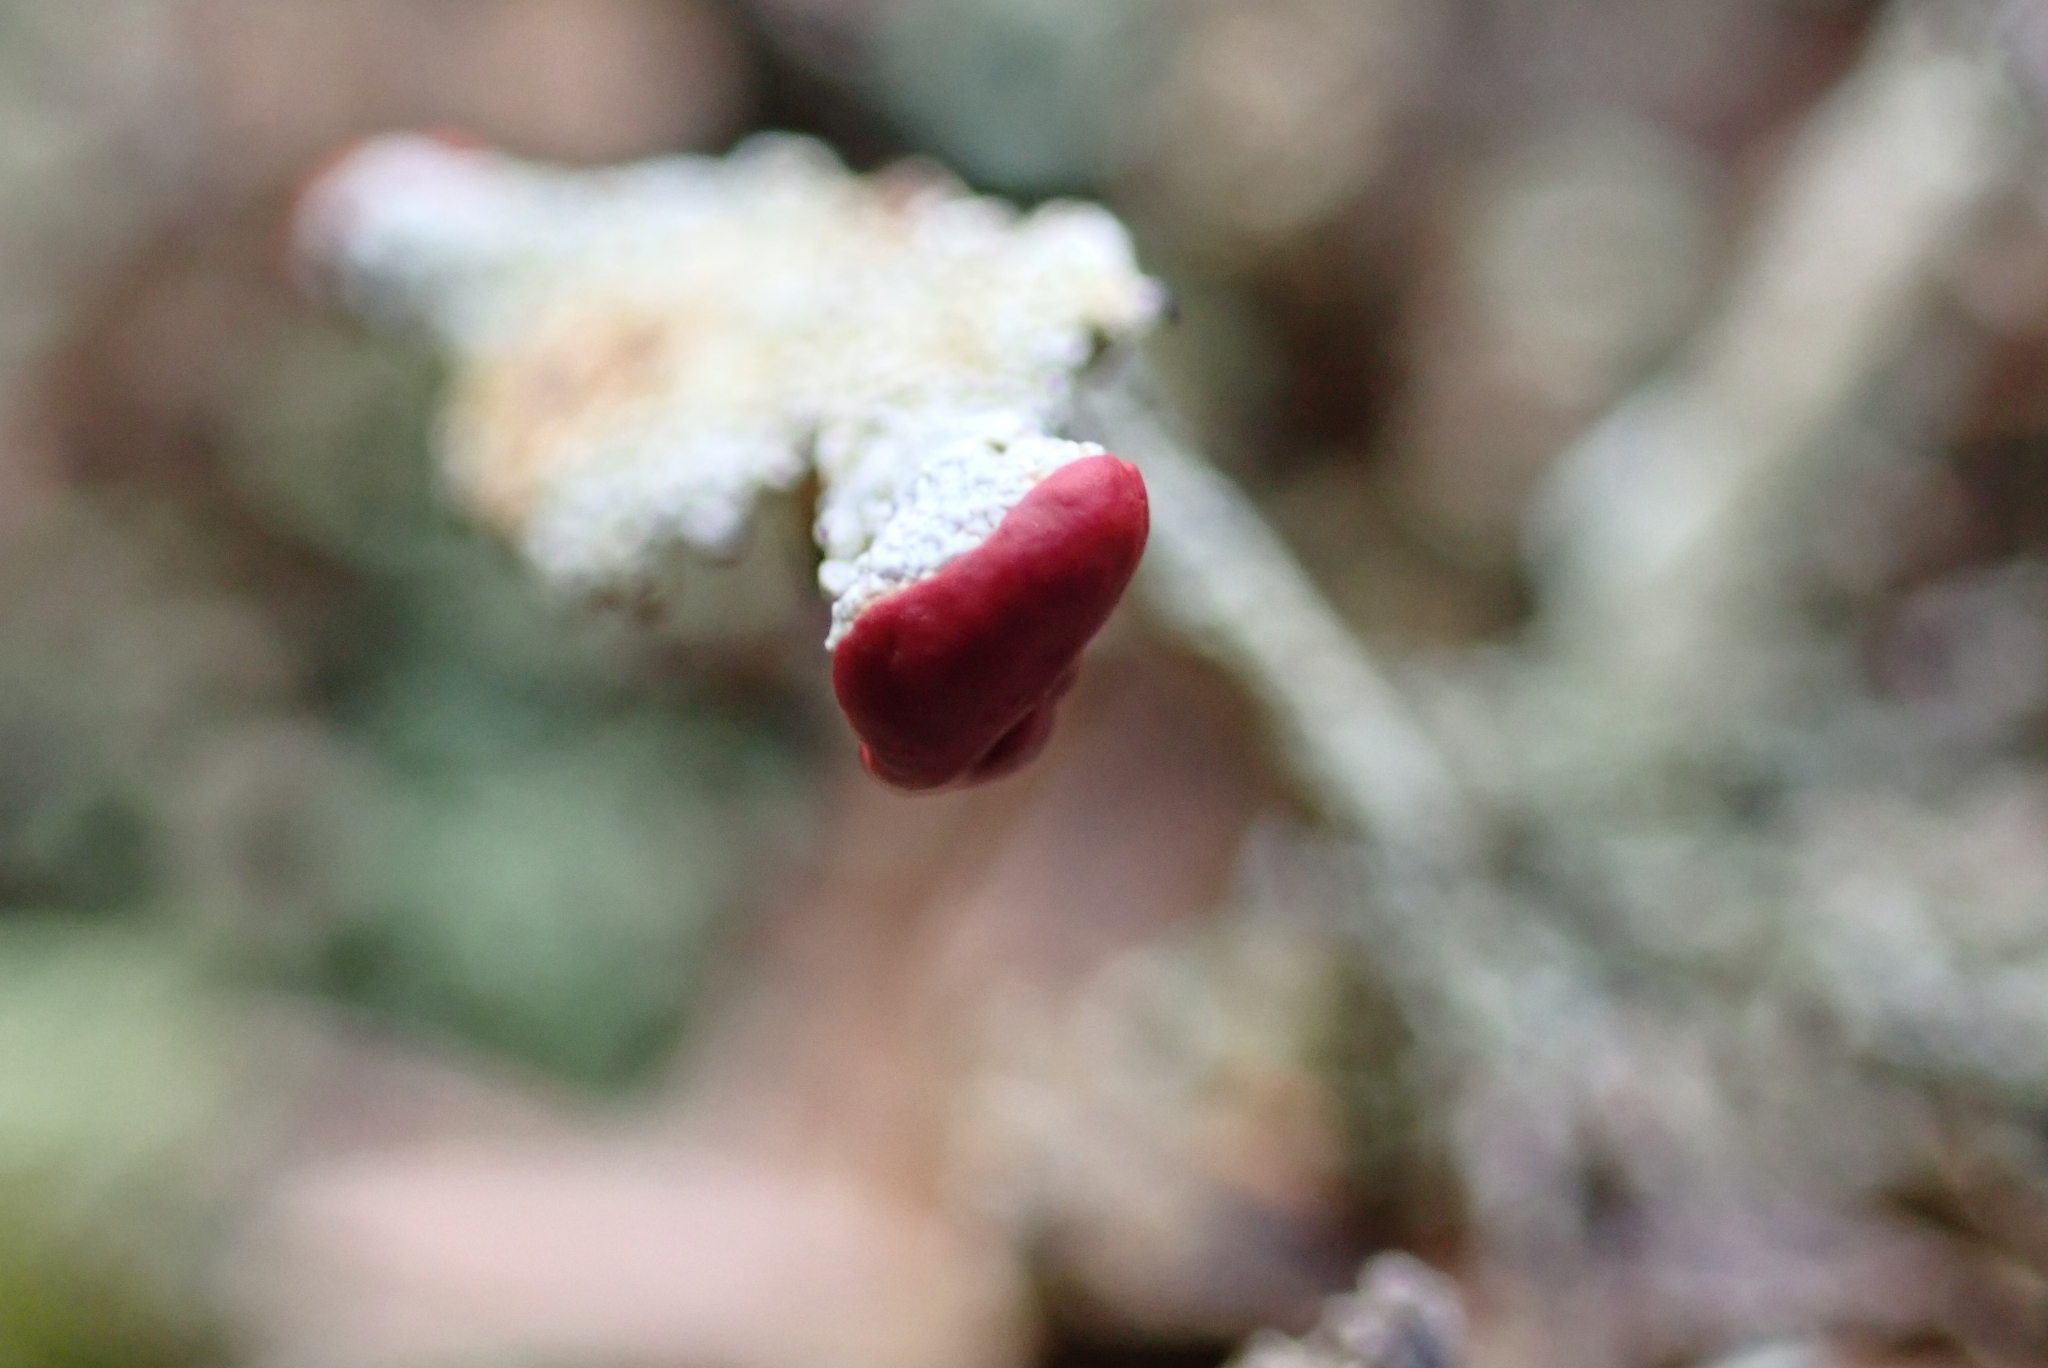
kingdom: Fungi
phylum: Ascomycota
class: Lecanoromycetes
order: Lecanorales
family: Cladoniaceae
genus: Cladonia
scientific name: Cladonia digitata
